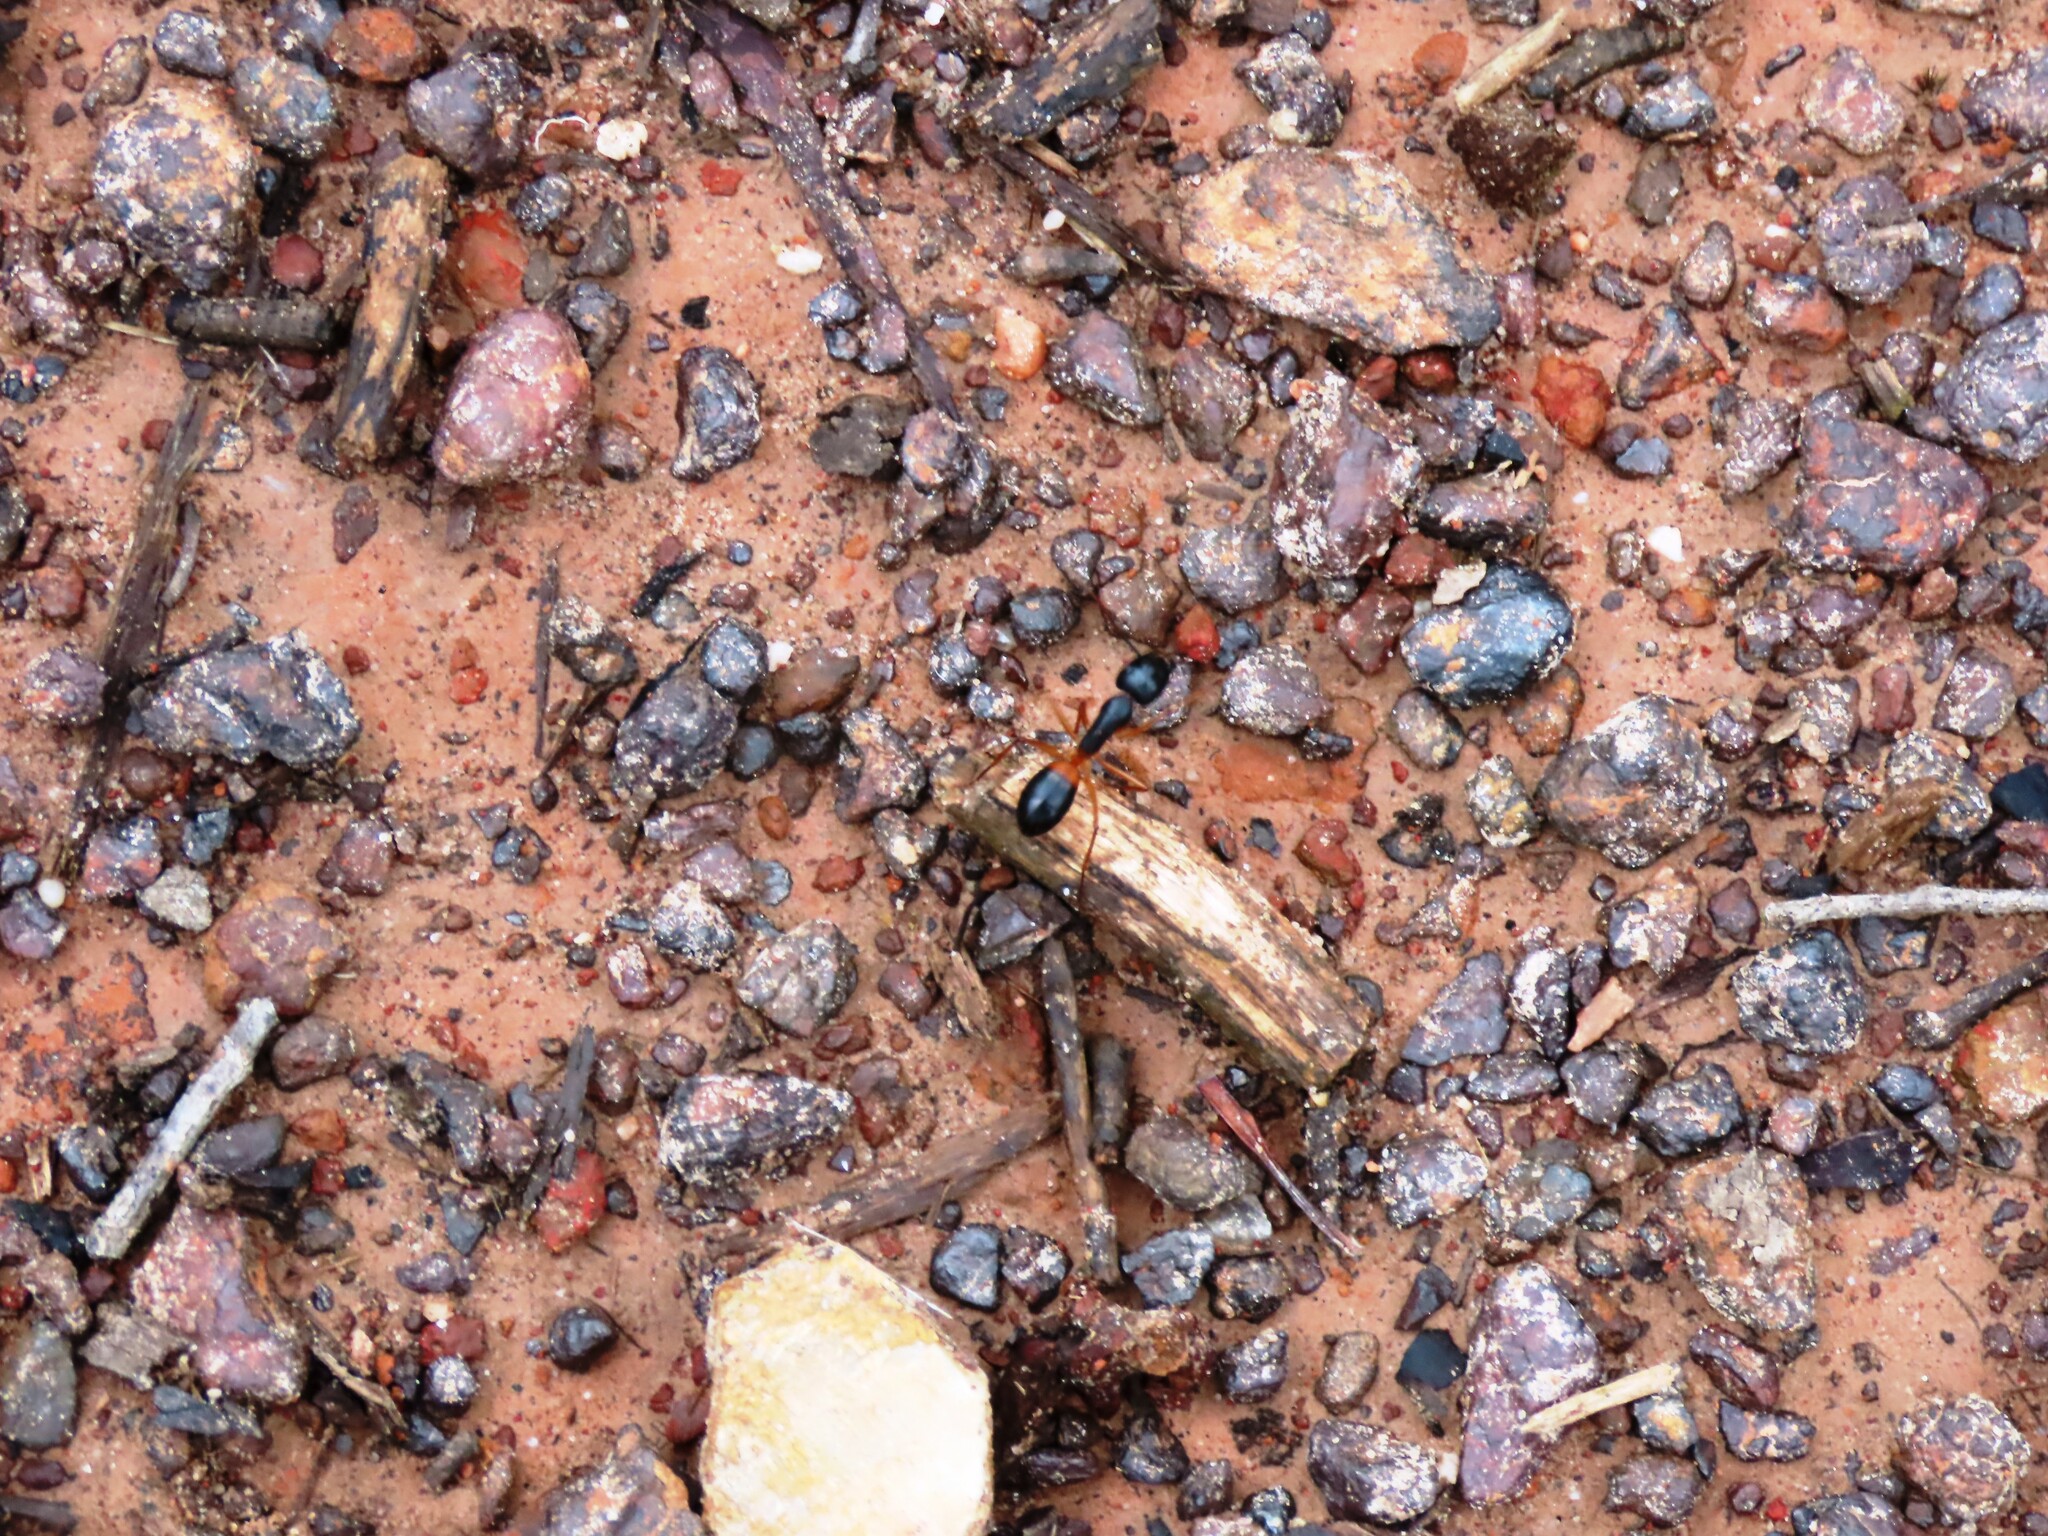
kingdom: Animalia
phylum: Arthropoda
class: Insecta
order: Hymenoptera
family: Formicidae
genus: Camponotus
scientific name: Camponotus consobrinus
